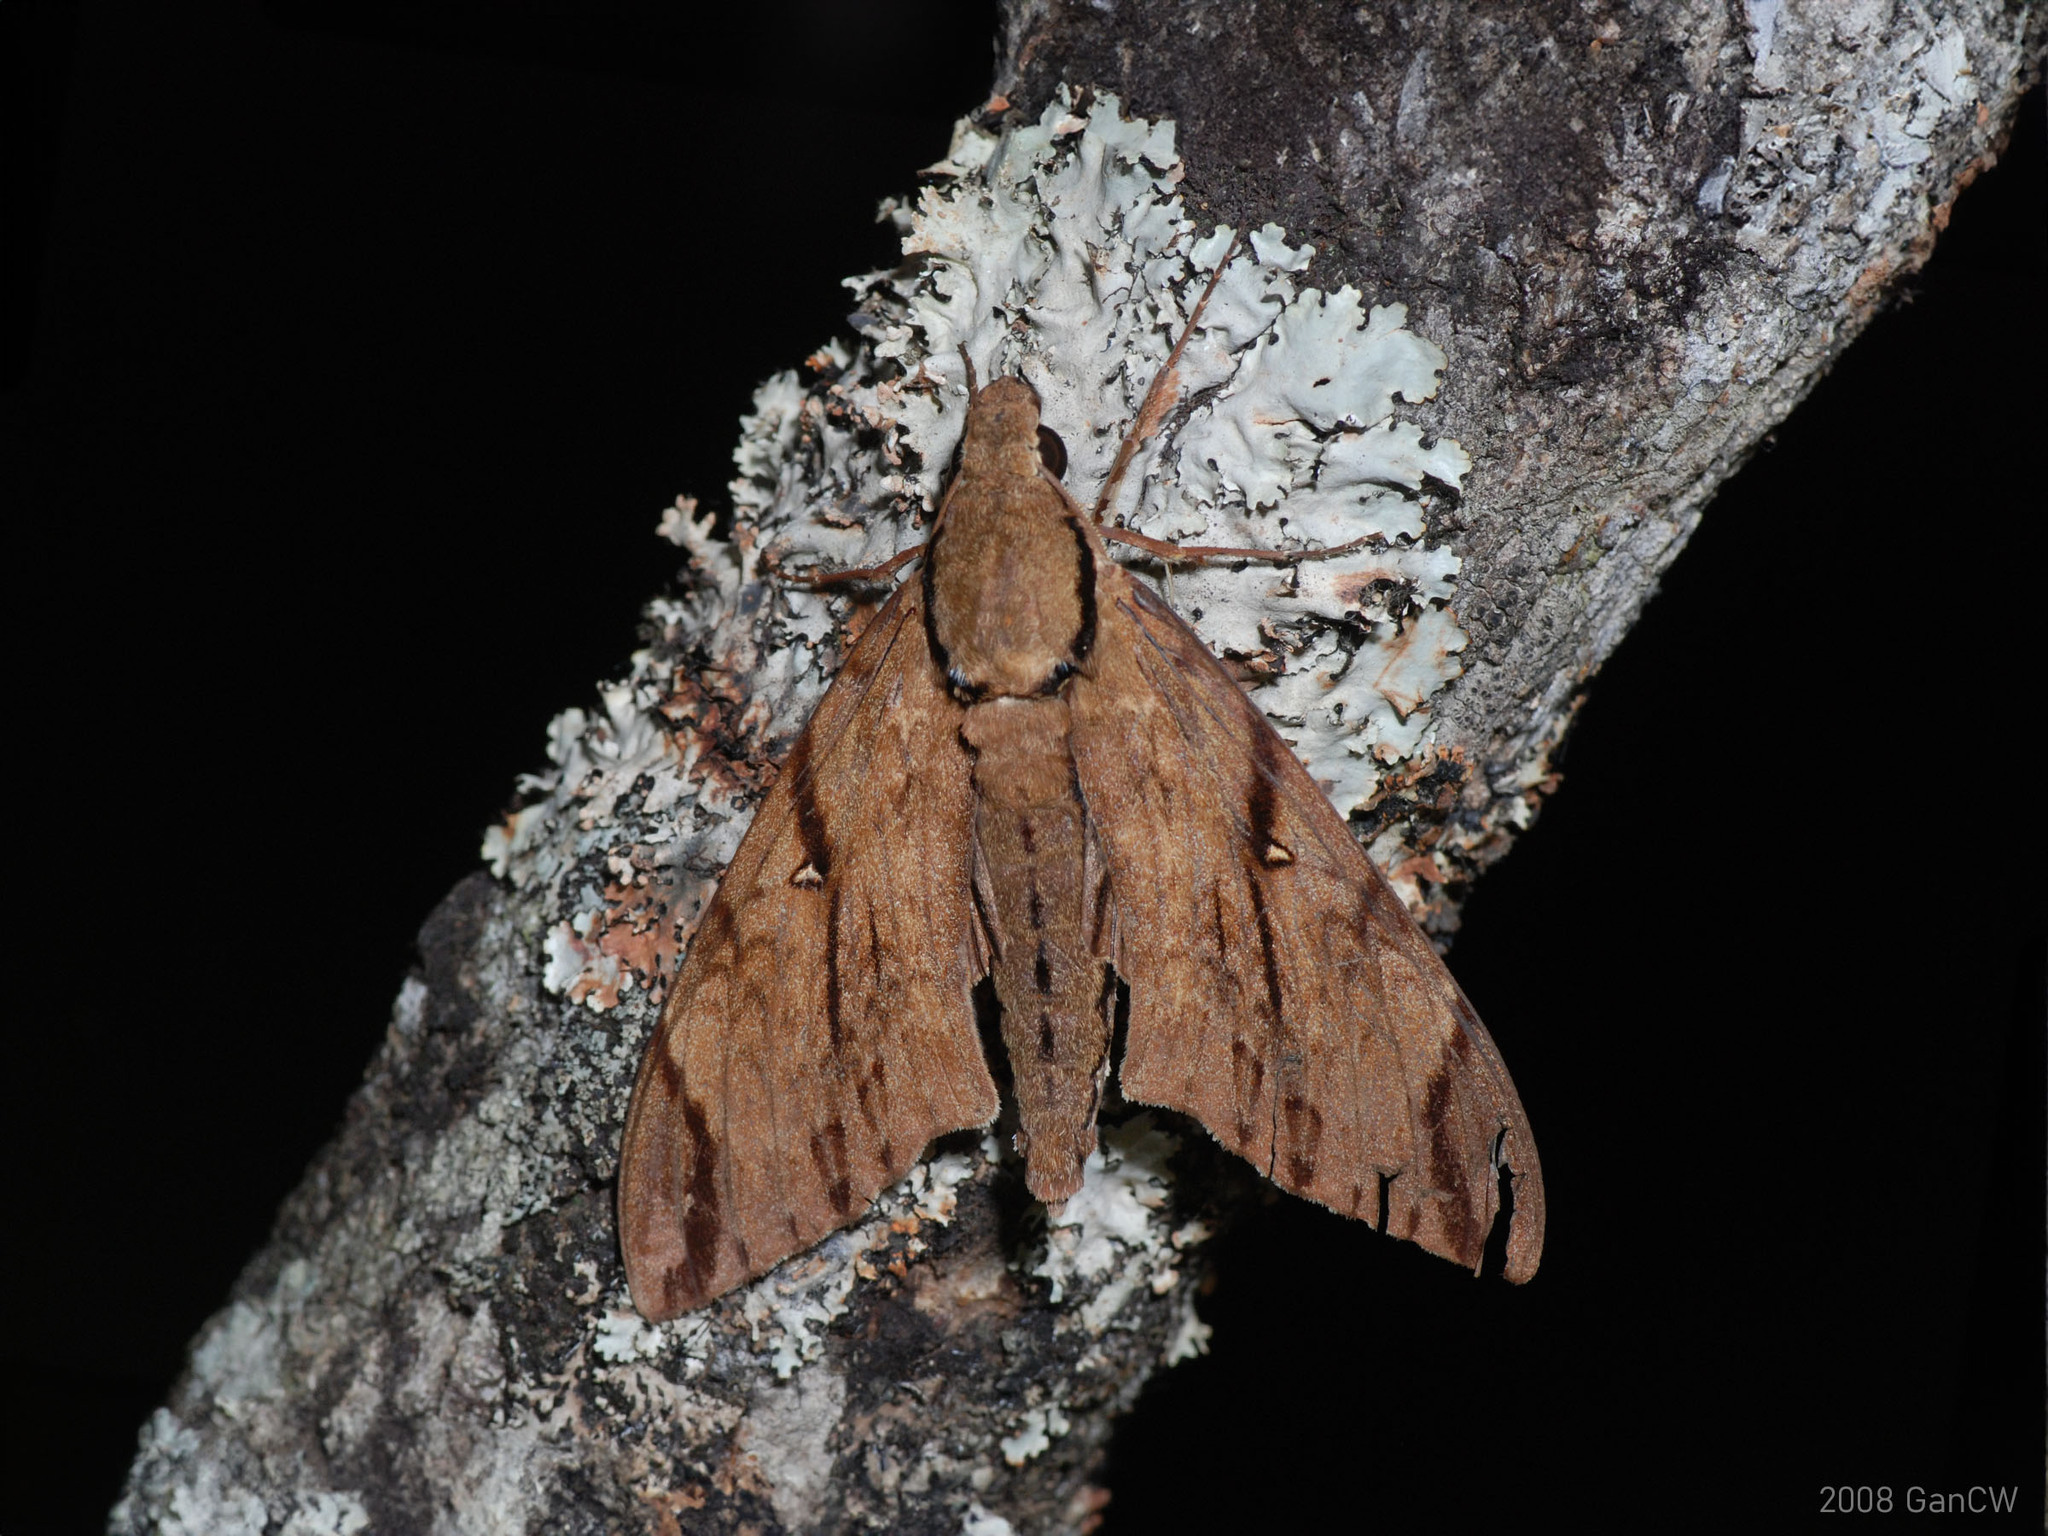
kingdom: Animalia
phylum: Arthropoda
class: Insecta
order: Lepidoptera
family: Sphingidae
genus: Cerberonoton
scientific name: Cerberonoton rubescens
